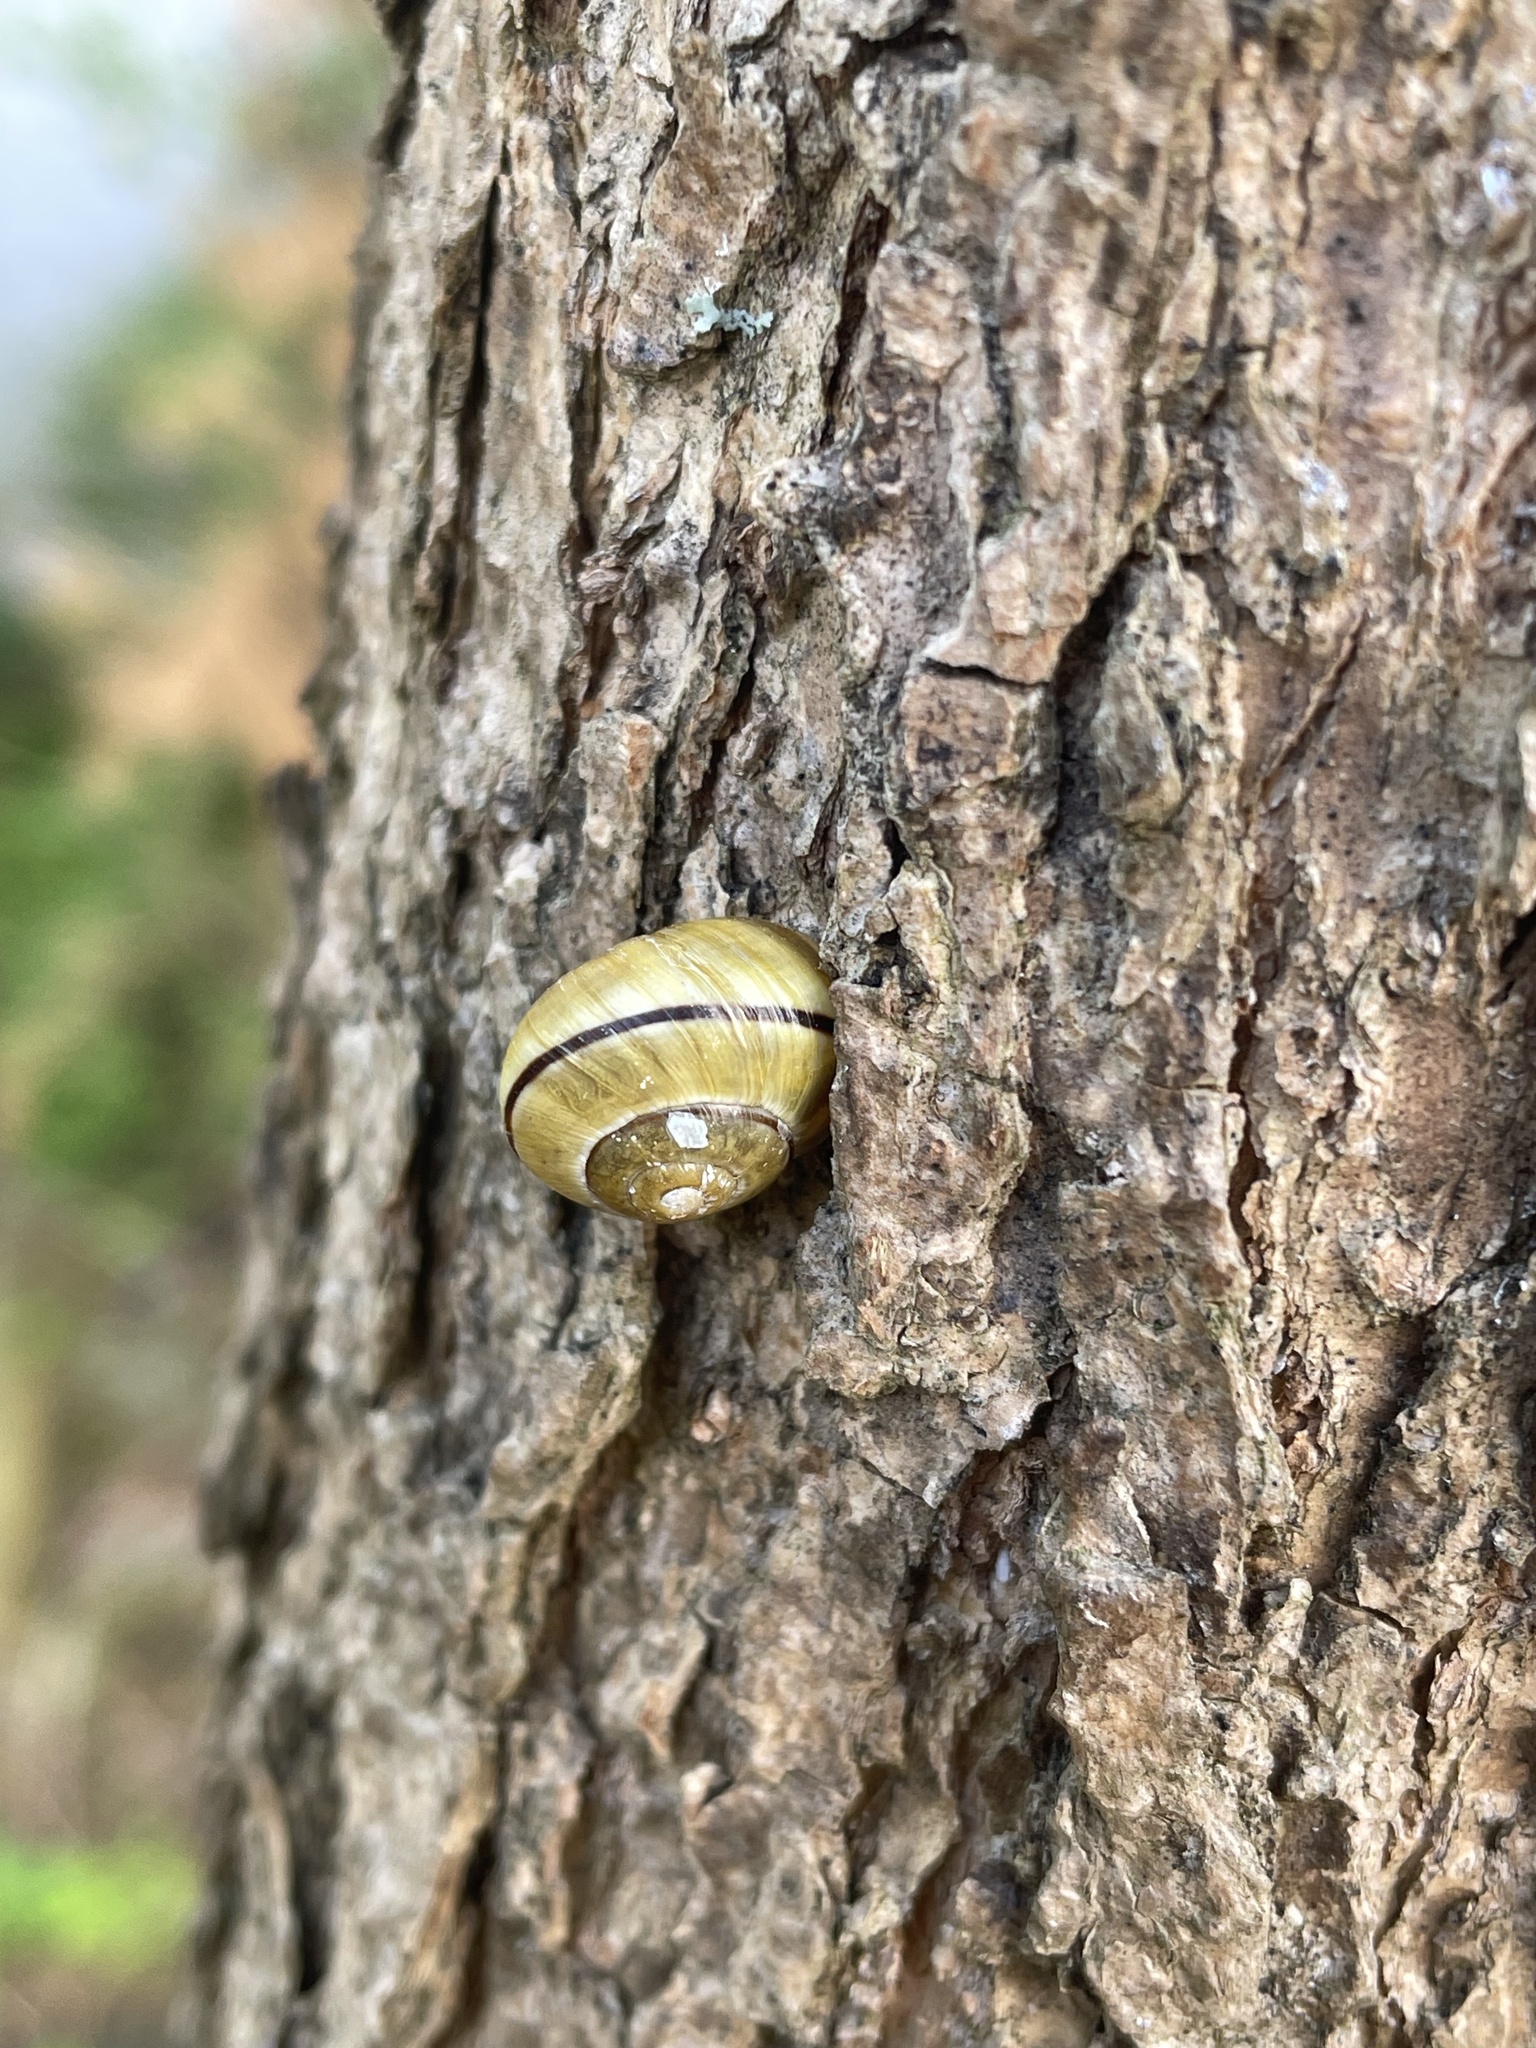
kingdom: Animalia
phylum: Mollusca
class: Gastropoda
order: Stylommatophora
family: Helicidae
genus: Cepaea
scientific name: Cepaea nemoralis
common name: Grovesnail
